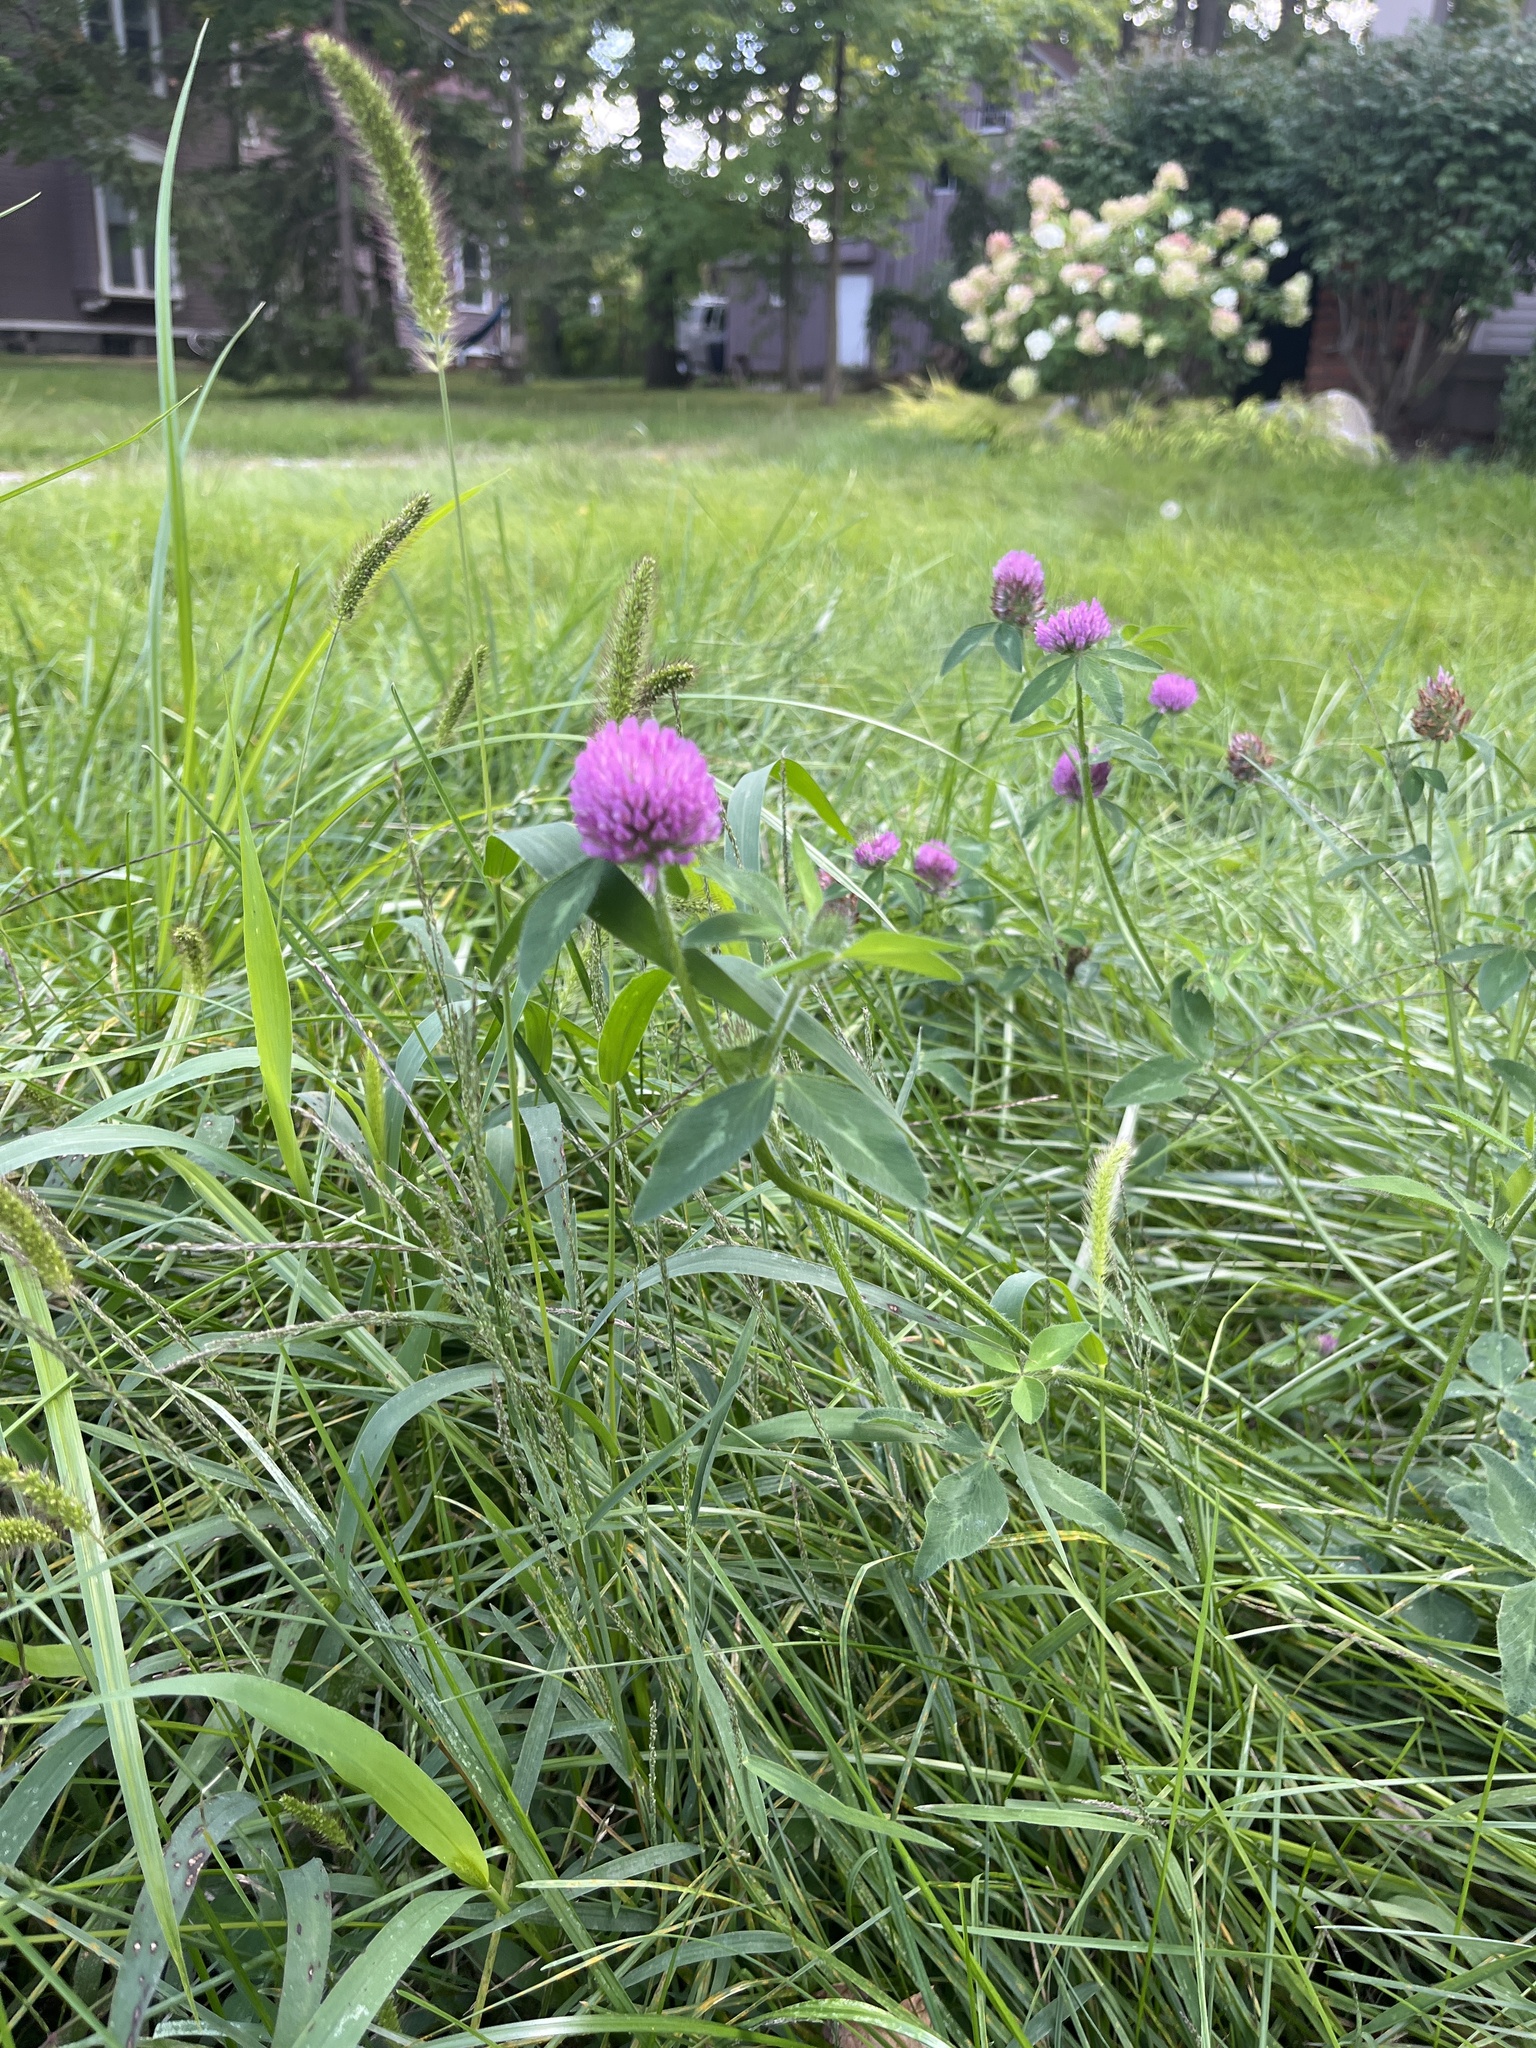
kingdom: Plantae
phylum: Tracheophyta
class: Magnoliopsida
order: Fabales
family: Fabaceae
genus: Trifolium
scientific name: Trifolium pratense
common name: Red clover
